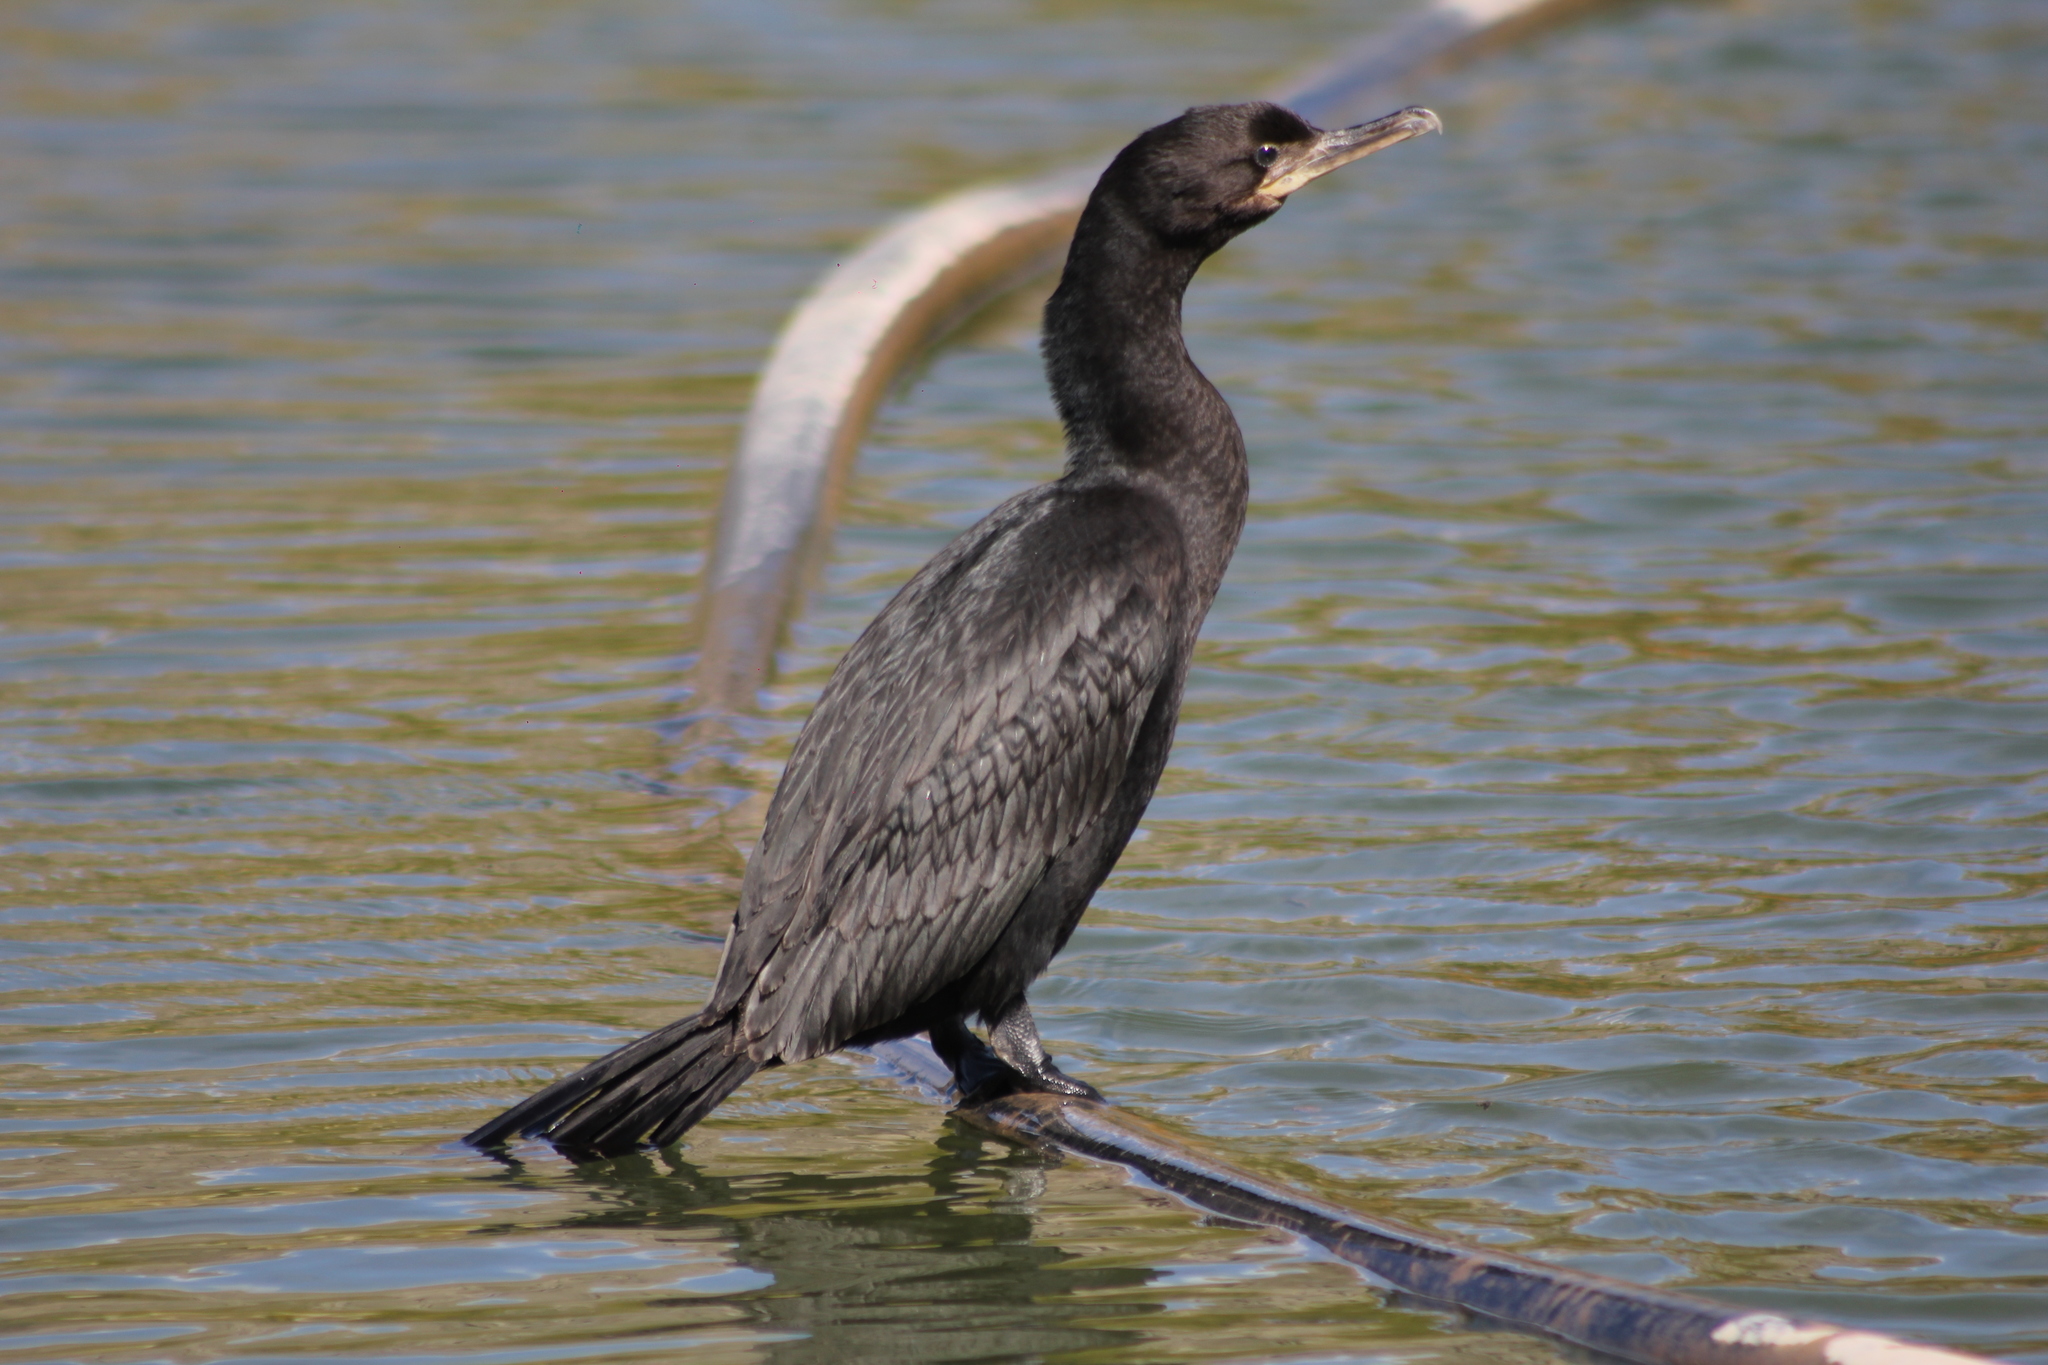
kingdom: Animalia
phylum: Chordata
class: Aves
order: Suliformes
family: Phalacrocoracidae
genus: Phalacrocorax
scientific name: Phalacrocorax brasilianus
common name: Neotropic cormorant
